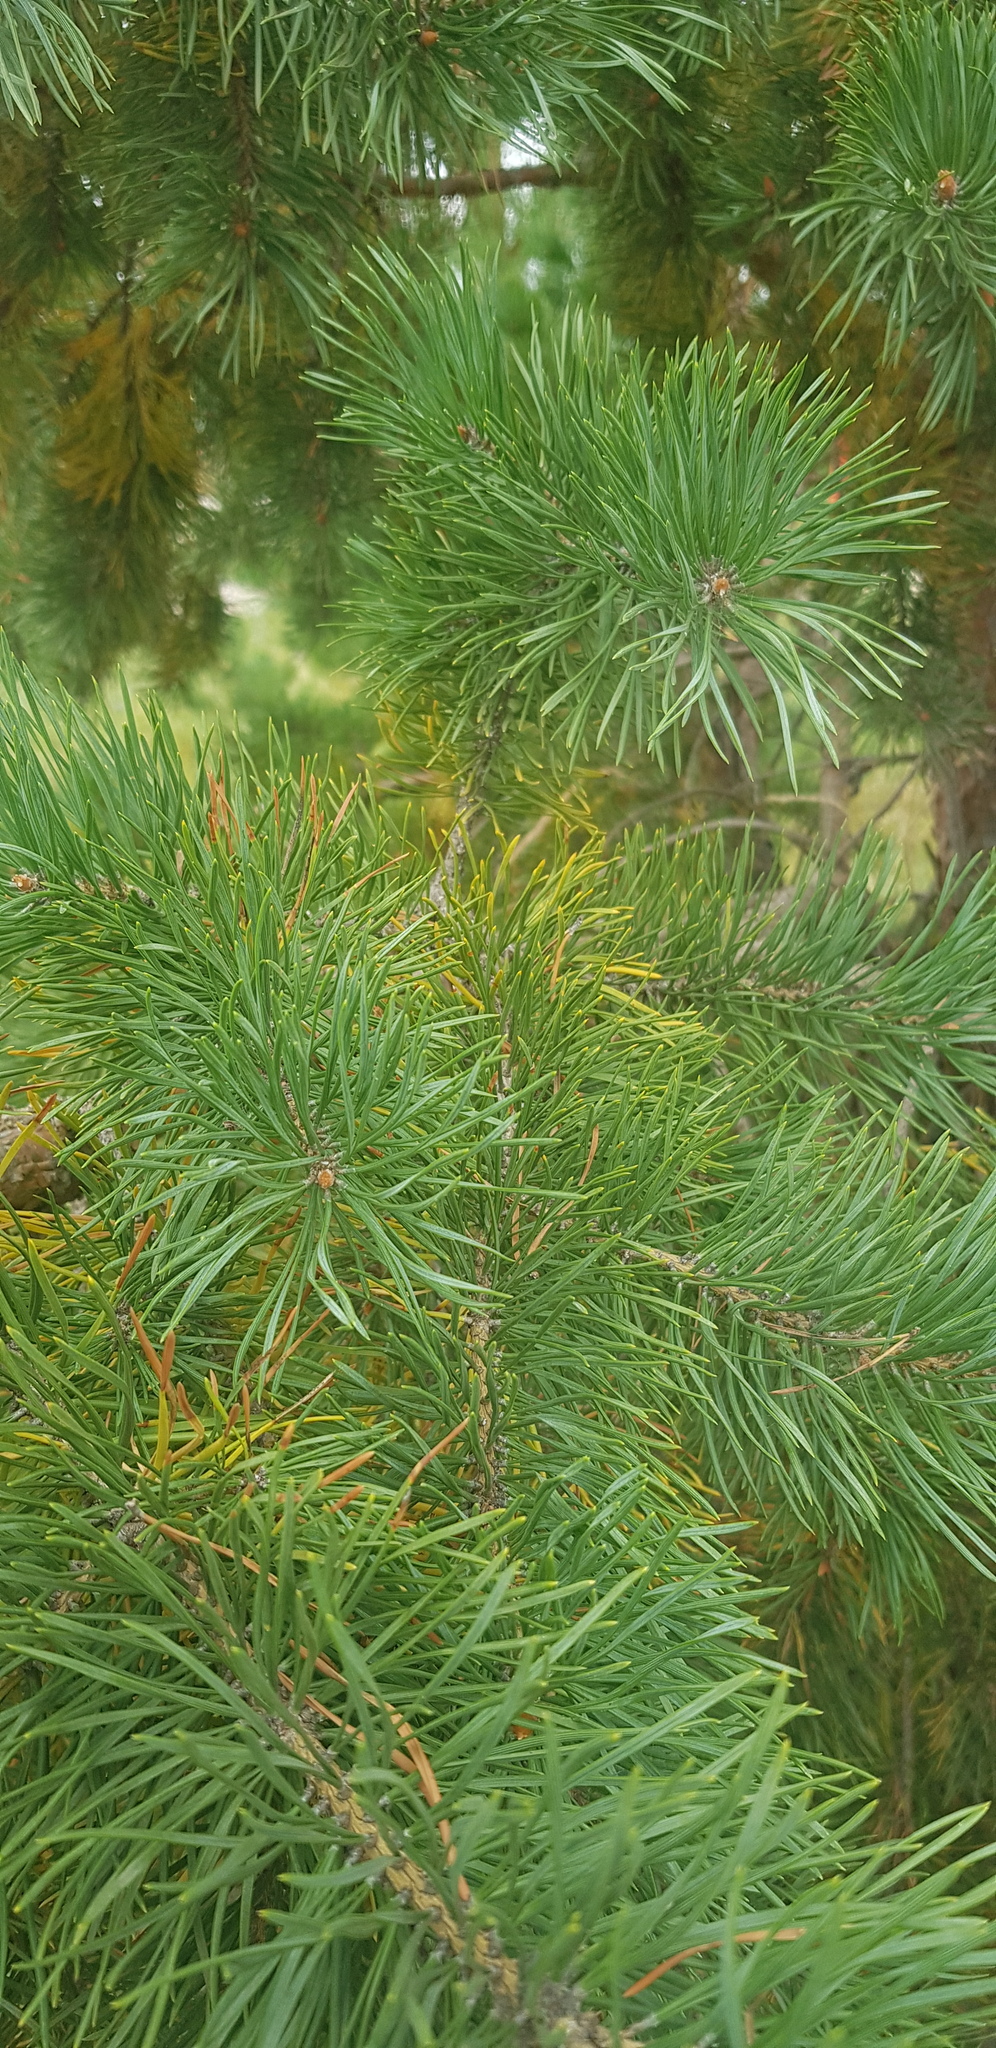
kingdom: Plantae
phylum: Tracheophyta
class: Pinopsida
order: Pinales
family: Pinaceae
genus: Pinus
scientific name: Pinus sylvestris
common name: Scots pine
